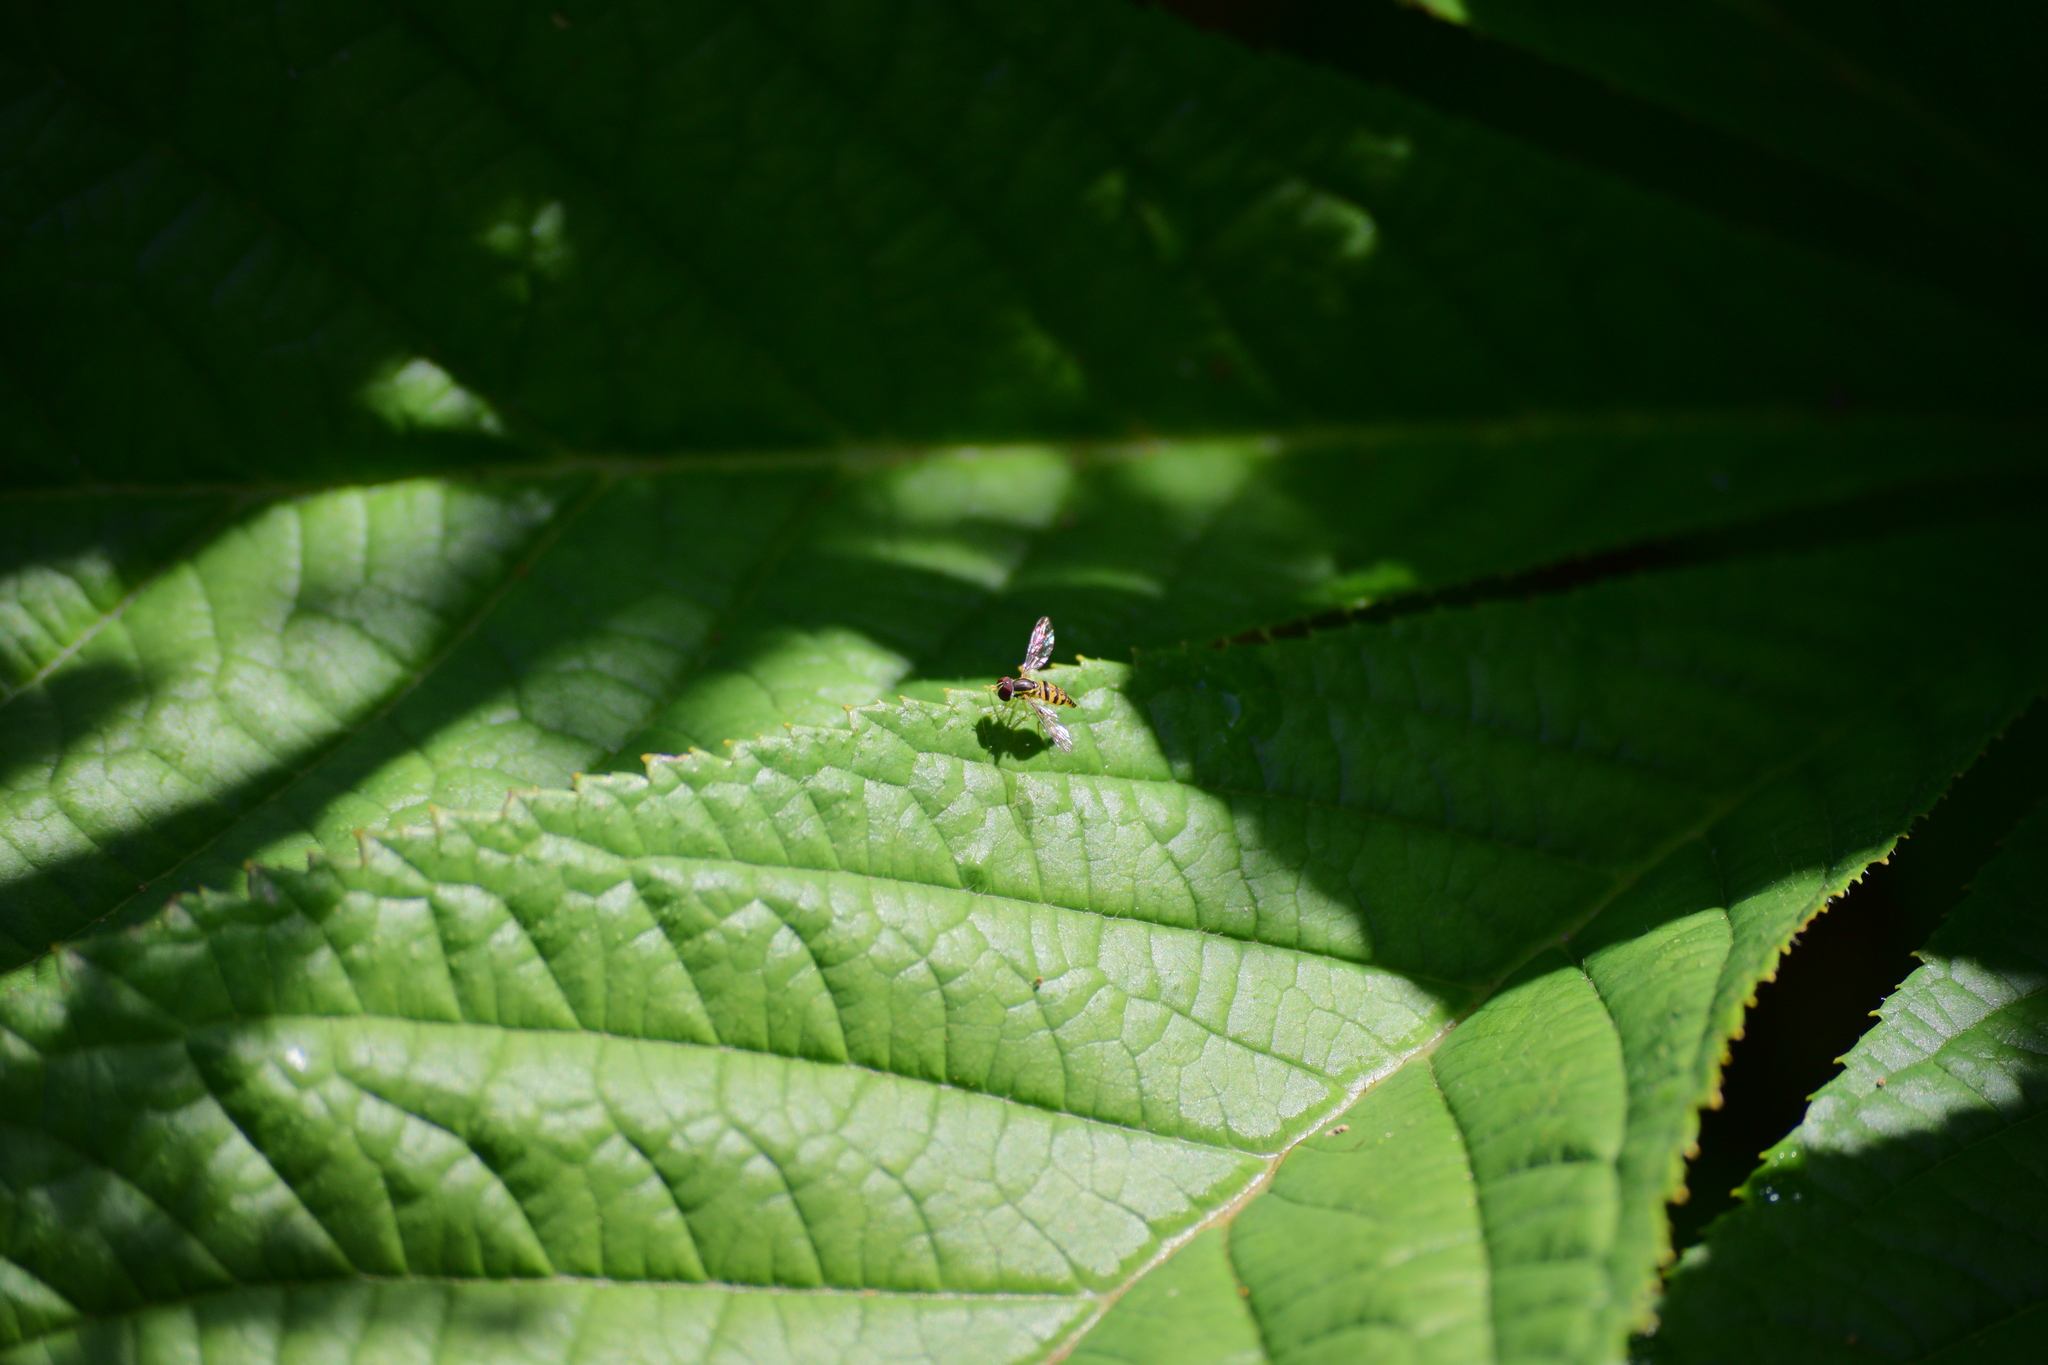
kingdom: Animalia
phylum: Arthropoda
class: Insecta
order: Diptera
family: Syrphidae
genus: Toxomerus
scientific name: Toxomerus geminatus
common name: Eastern calligrapher
